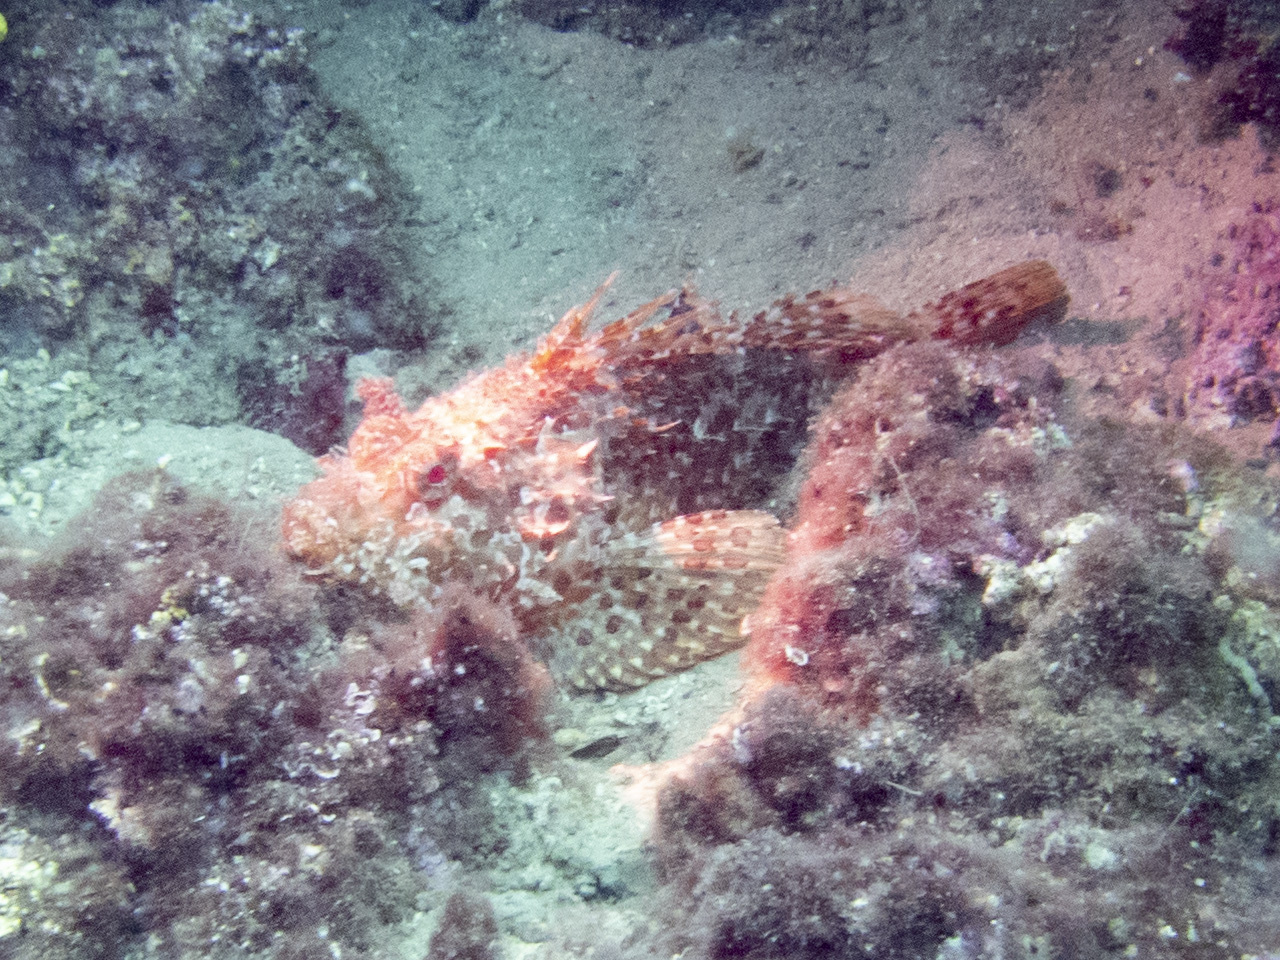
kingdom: Animalia
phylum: Chordata
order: Scorpaeniformes
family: Scorpaenidae
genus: Scorpaena
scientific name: Scorpaena scrofa
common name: Red scorpionfish
